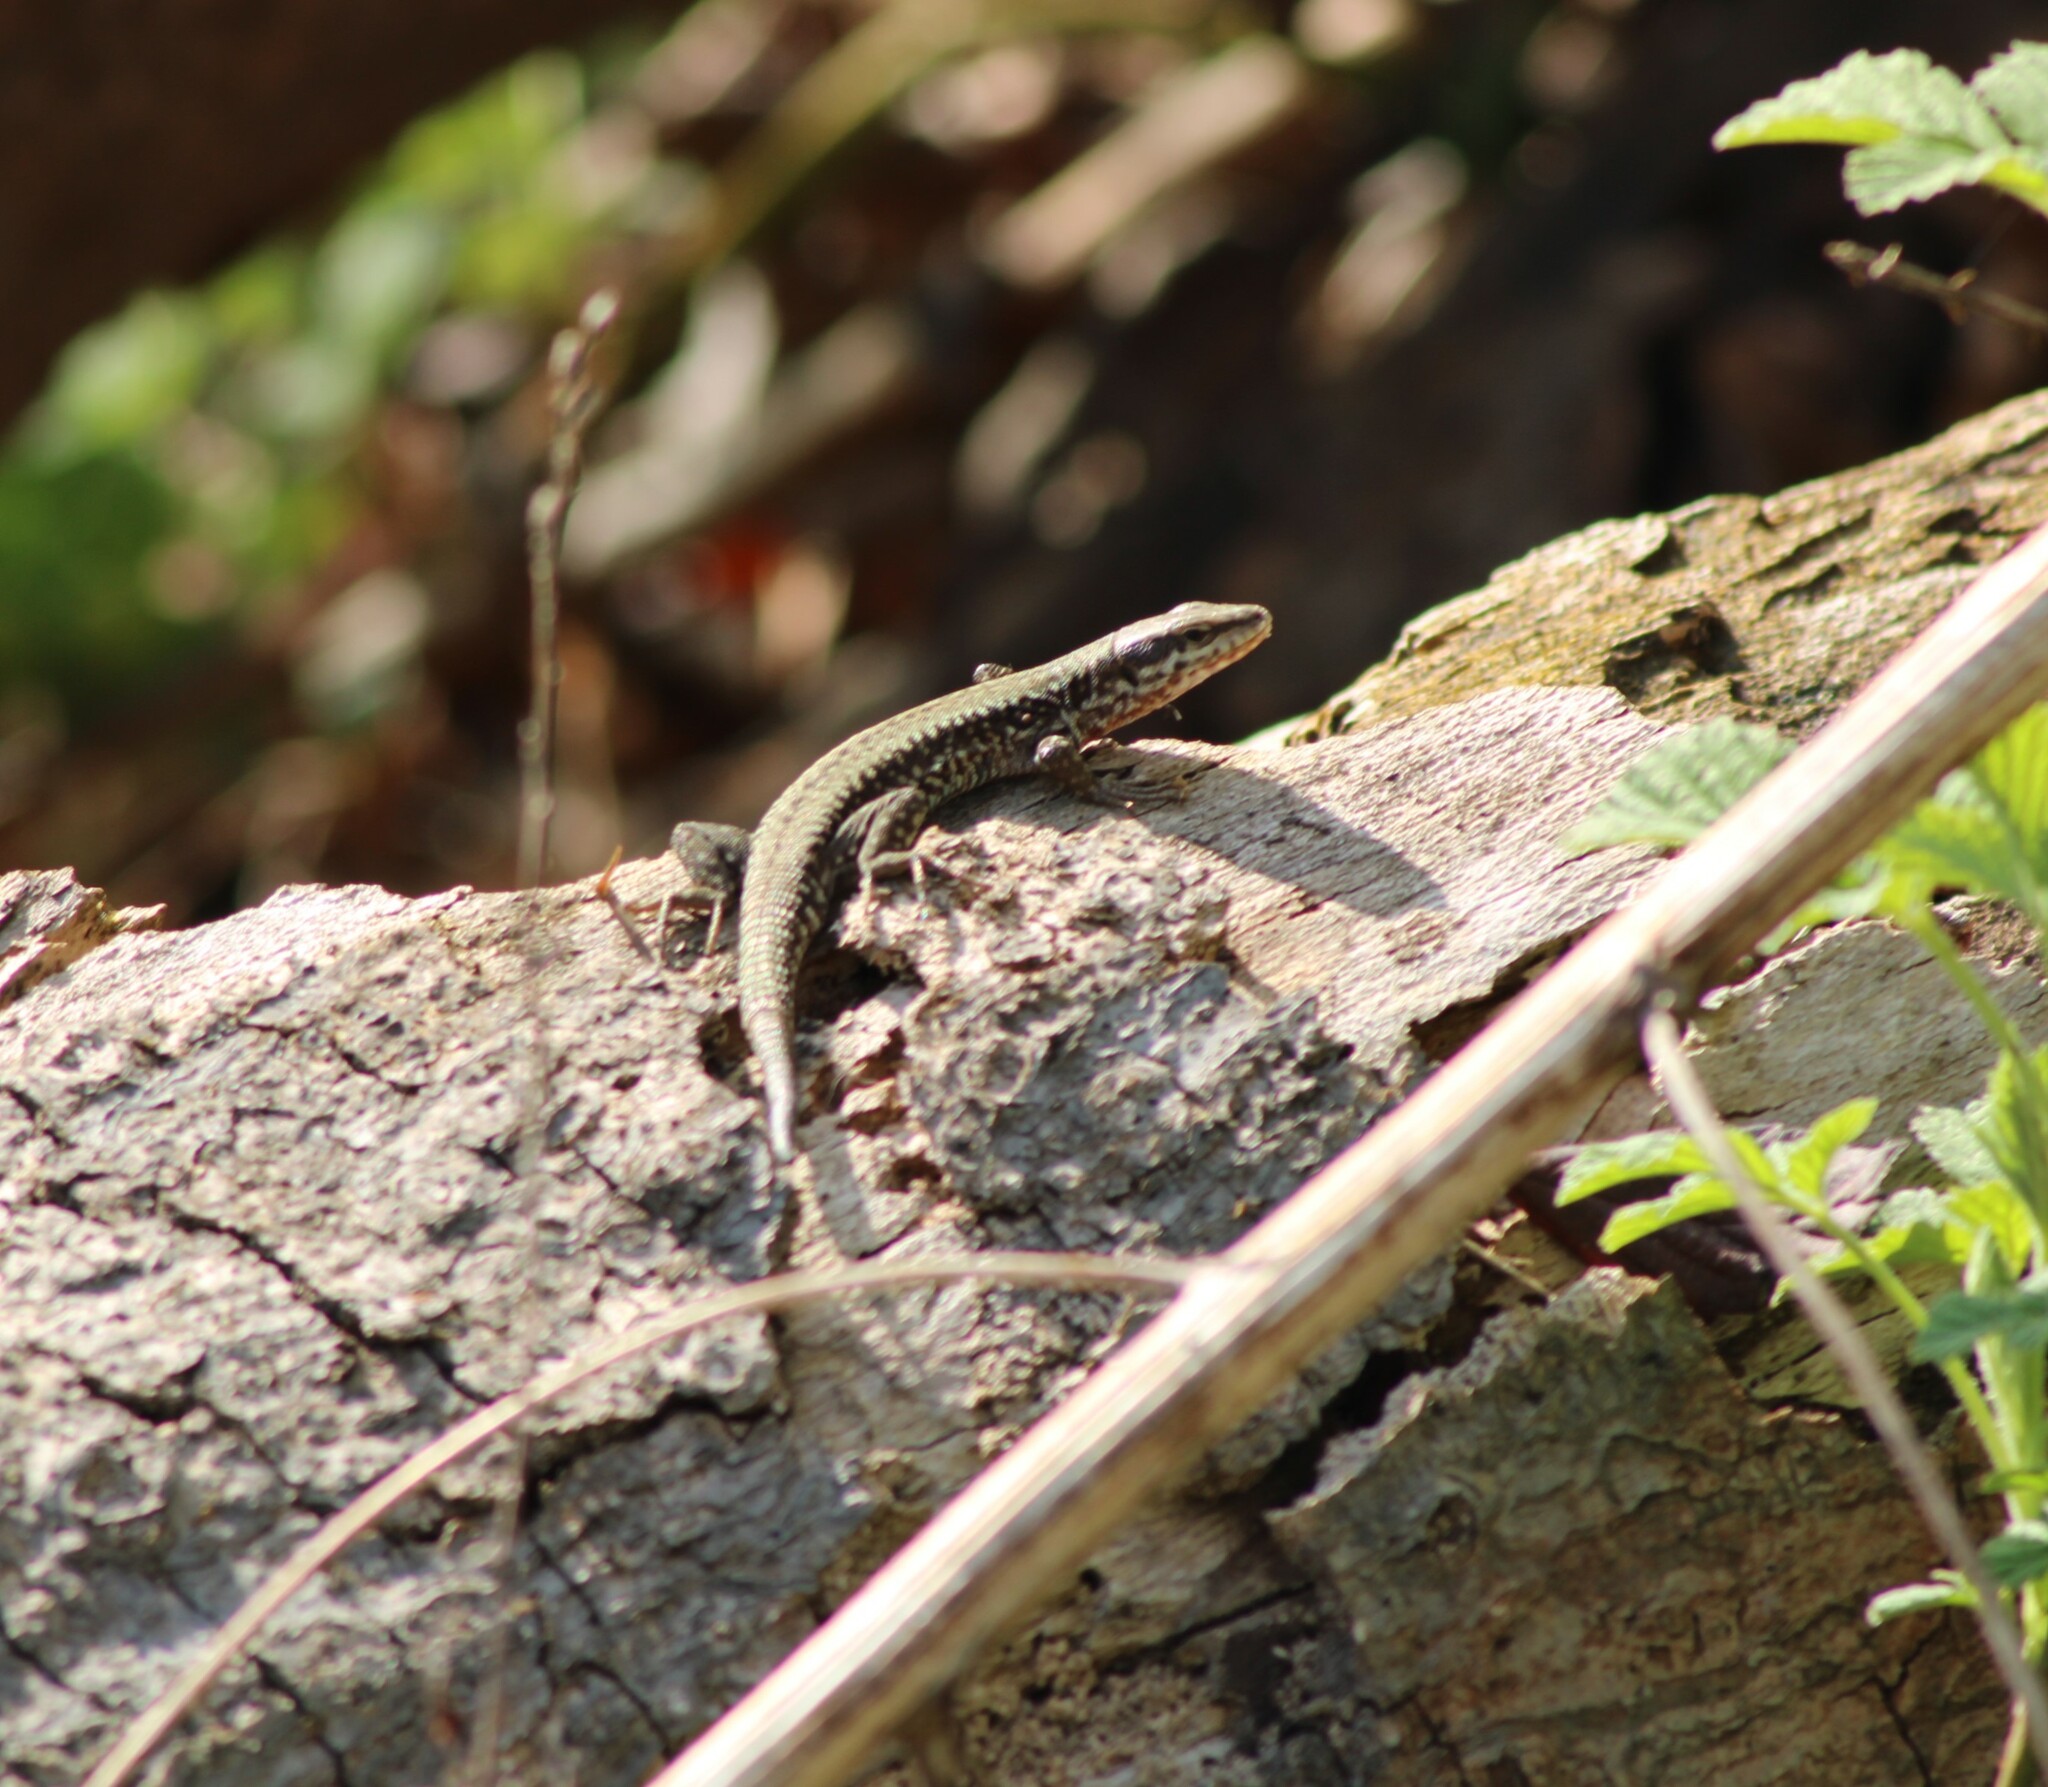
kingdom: Animalia
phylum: Chordata
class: Squamata
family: Lacertidae
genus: Podarcis
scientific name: Podarcis muralis
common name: Common wall lizard
